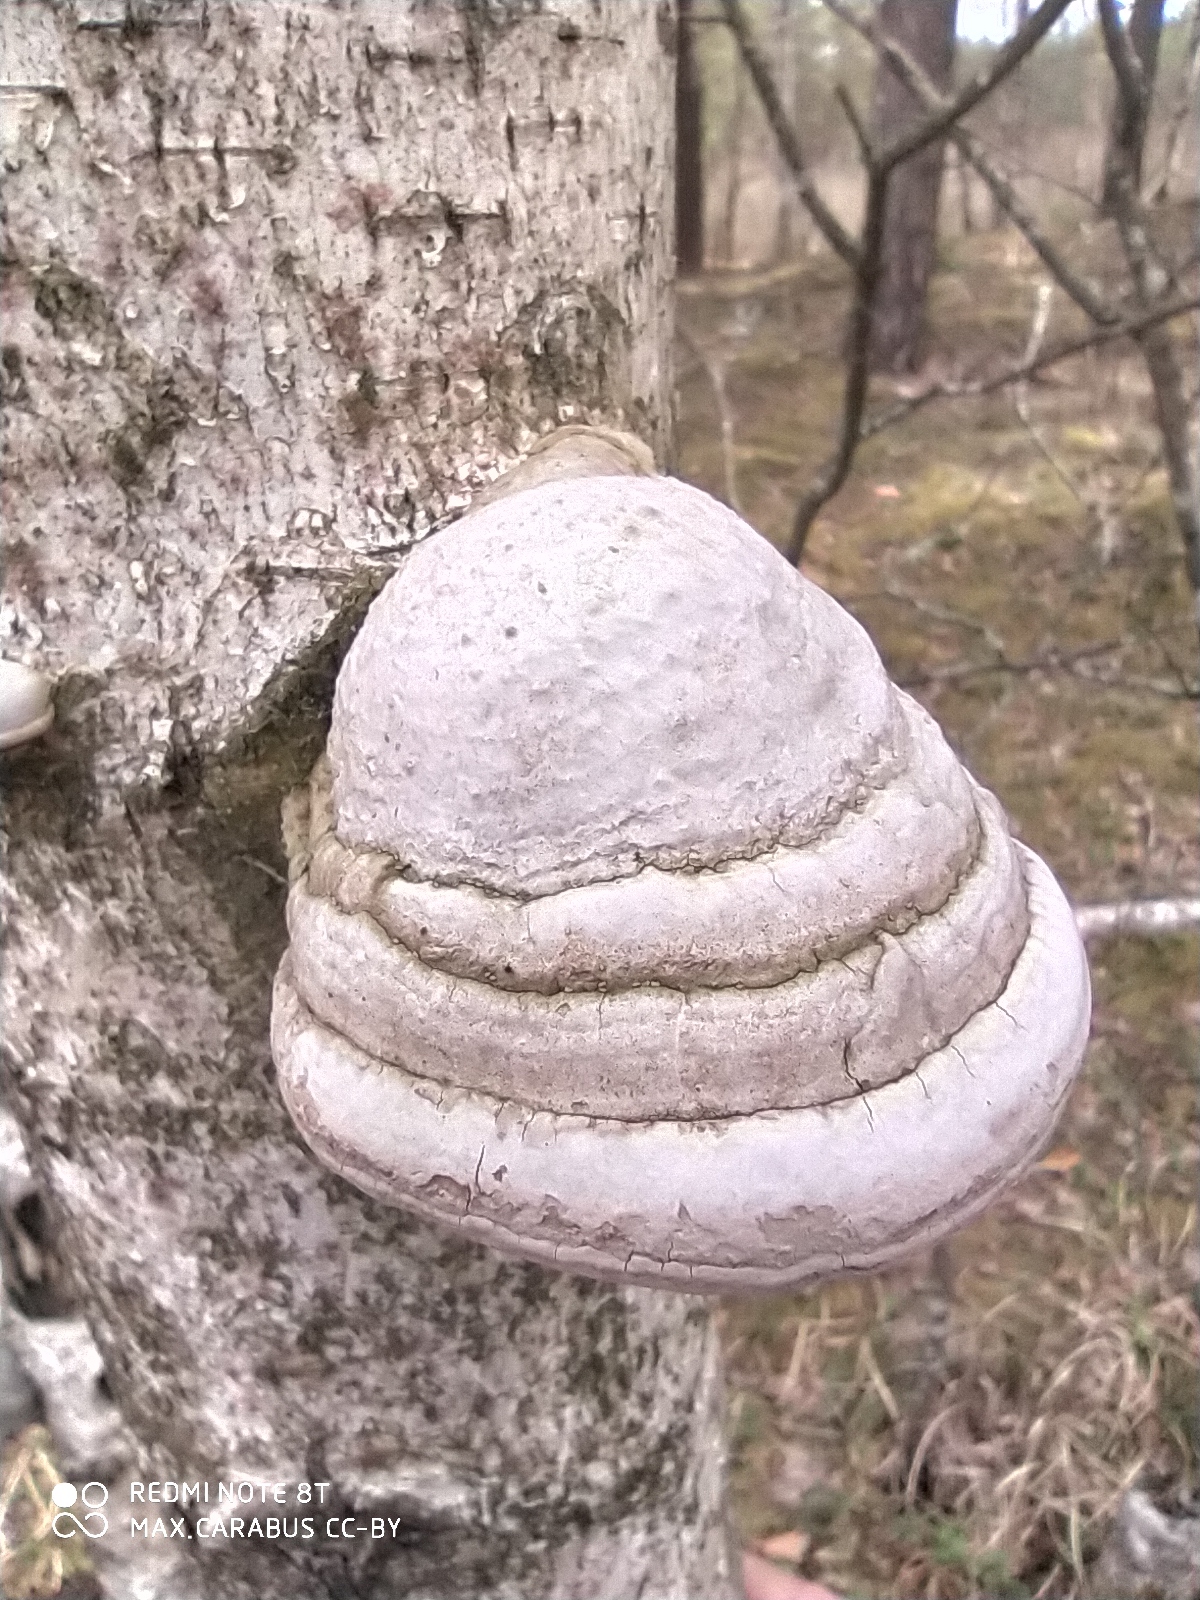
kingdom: Fungi
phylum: Basidiomycota
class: Agaricomycetes
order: Polyporales
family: Polyporaceae
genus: Fomes
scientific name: Fomes fomentarius
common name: Hoof fungus
